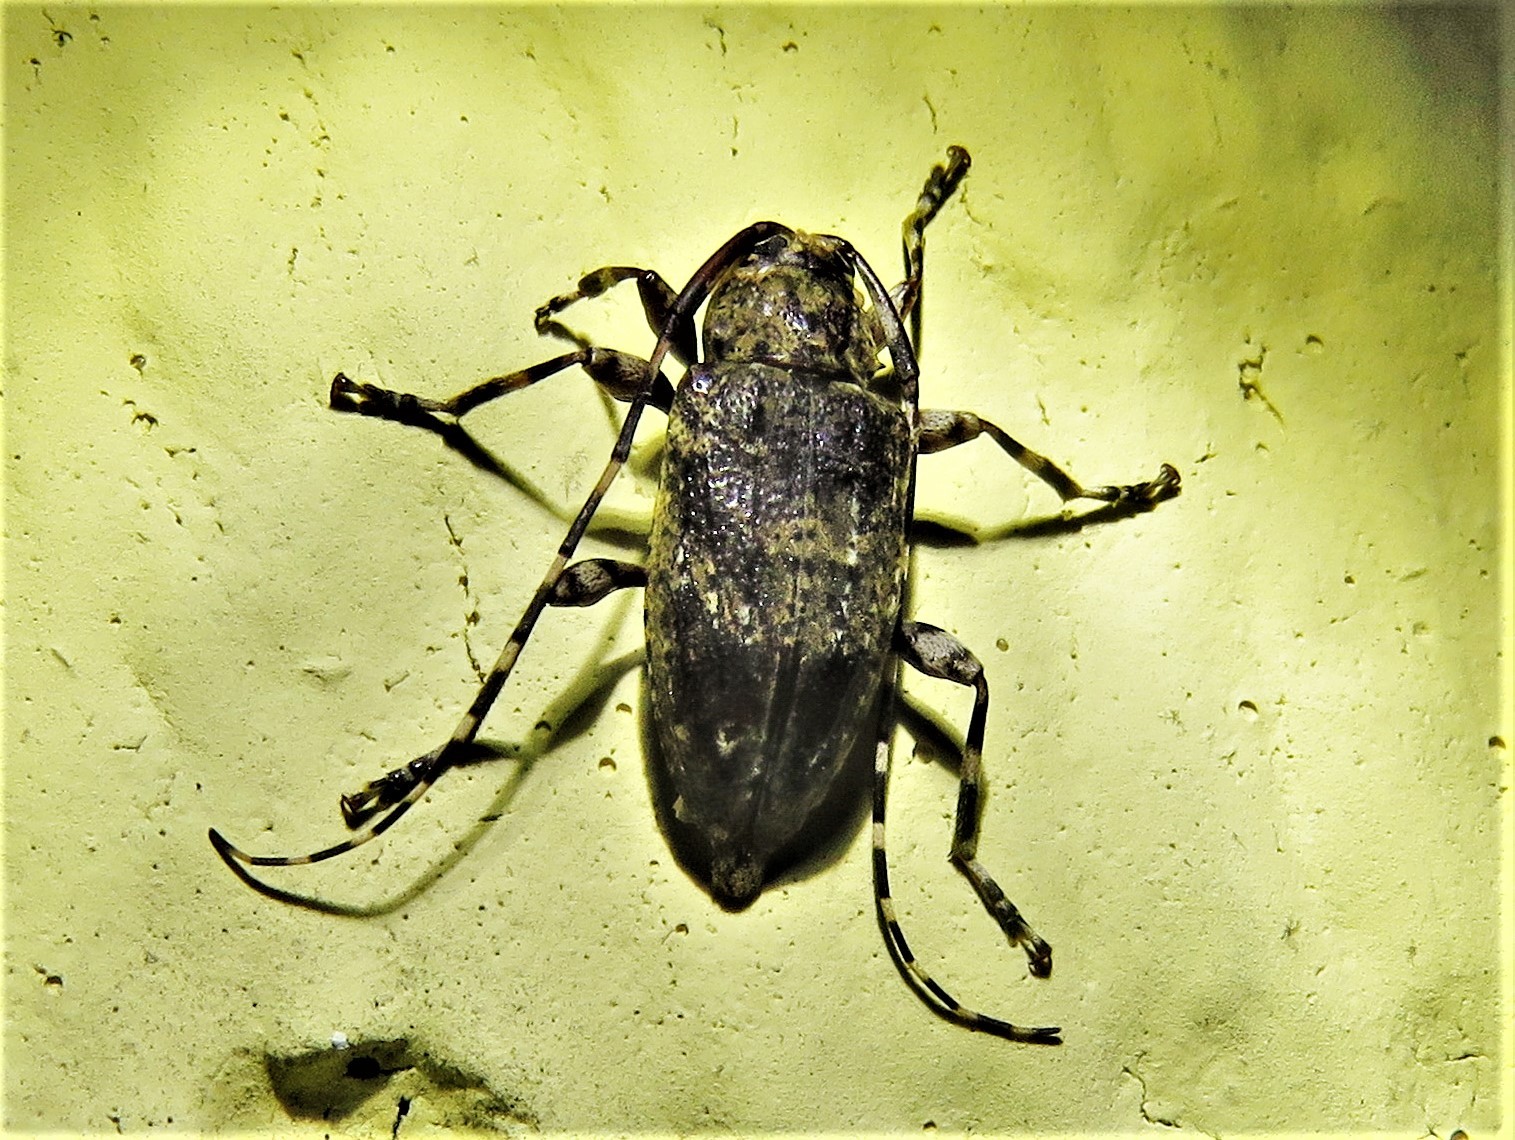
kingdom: Animalia
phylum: Arthropoda
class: Insecta
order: Coleoptera
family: Cerambycidae
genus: Astylopsis
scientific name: Astylopsis sexguttata
